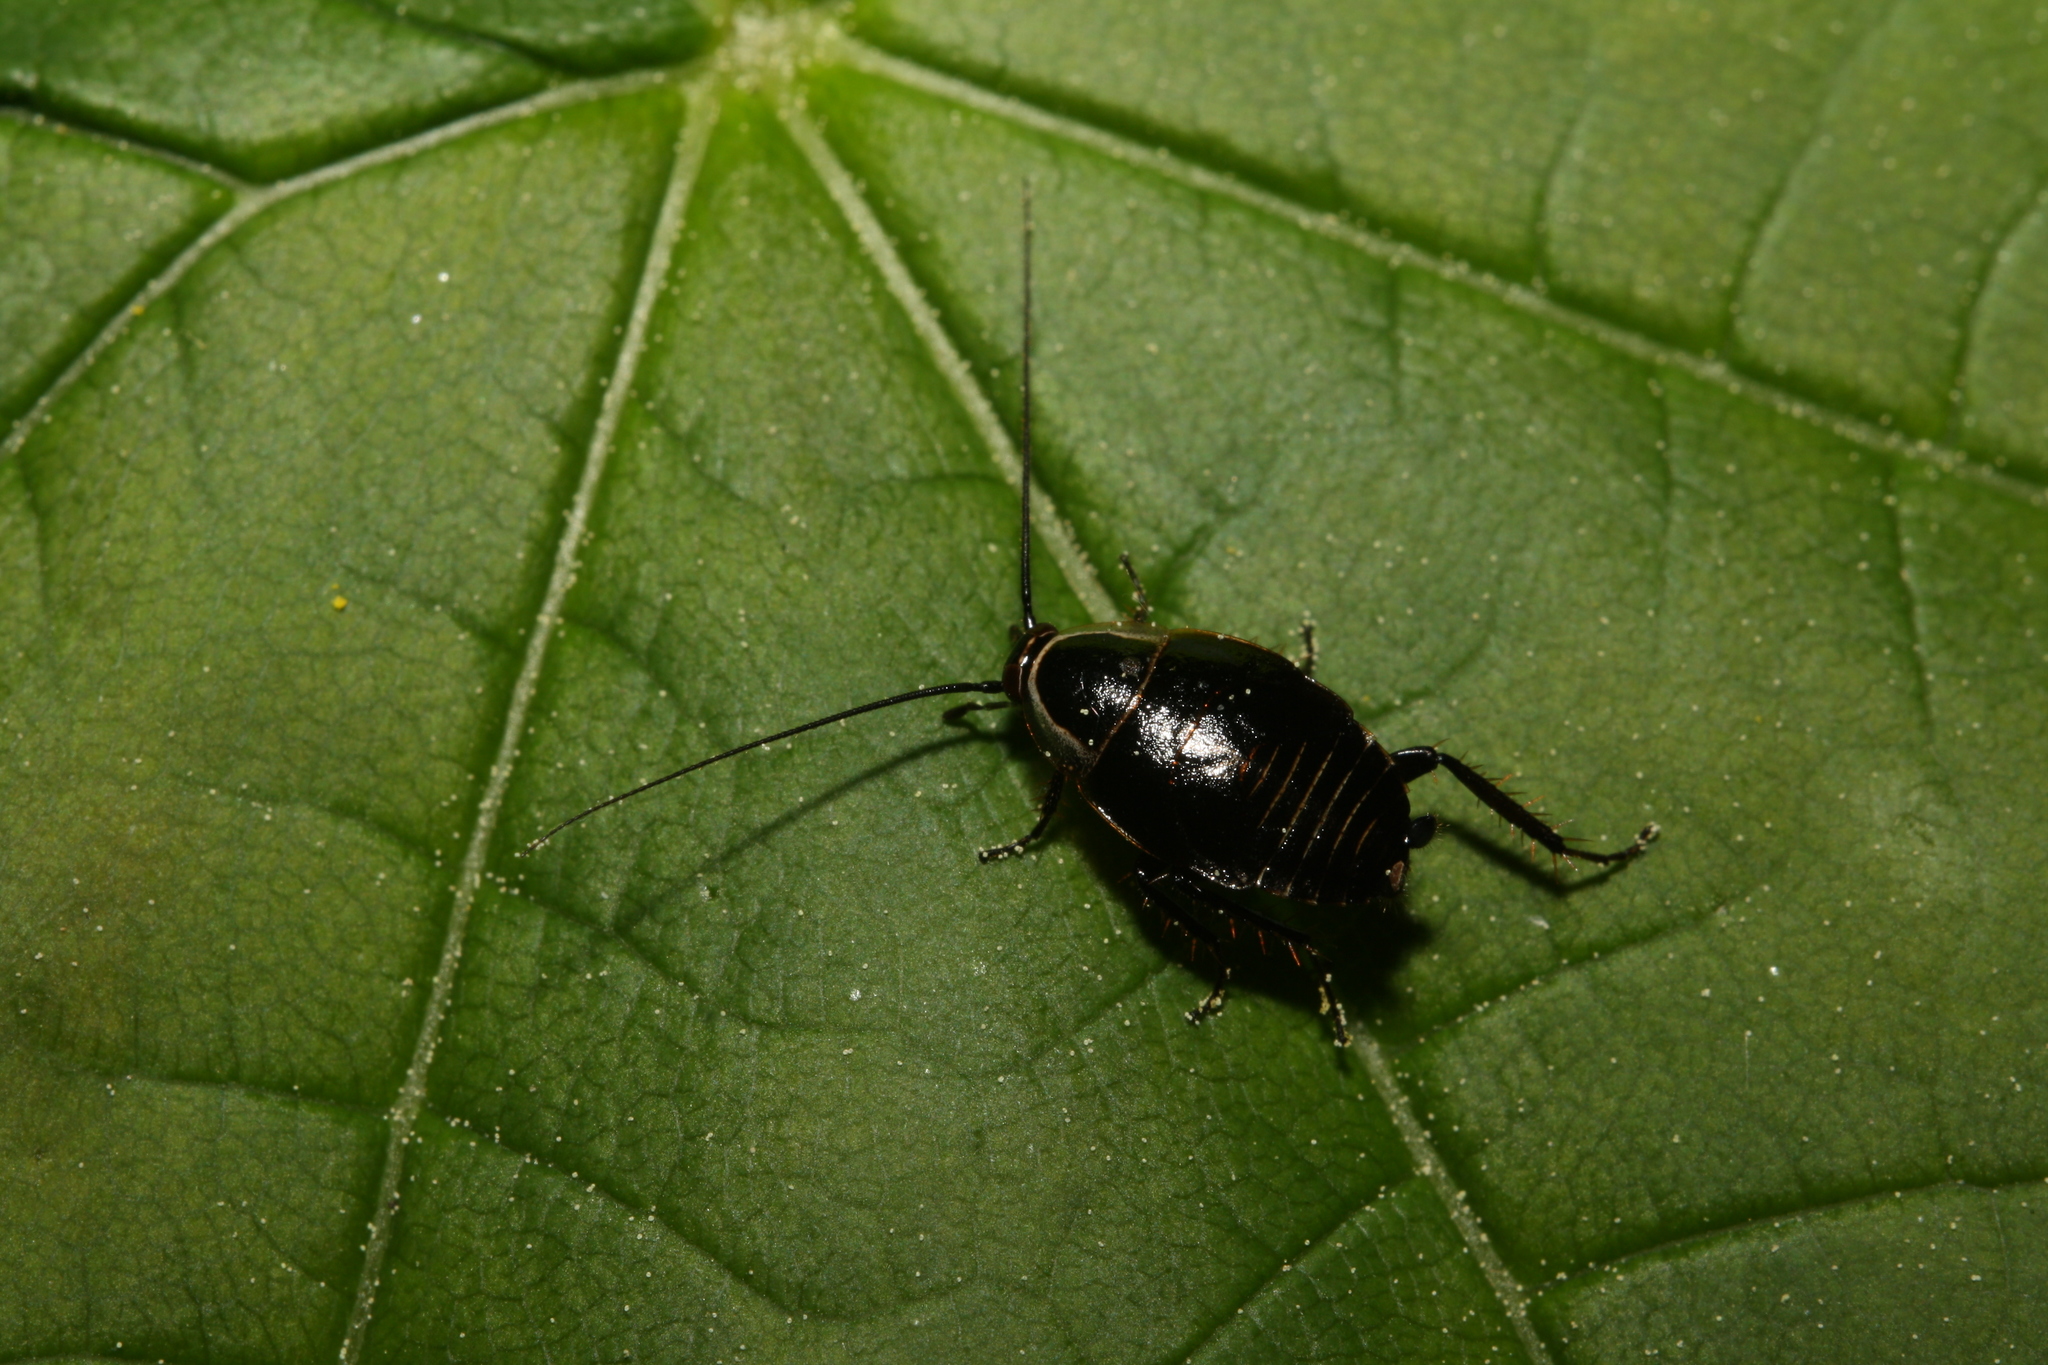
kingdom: Animalia
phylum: Arthropoda
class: Insecta
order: Blattodea
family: Ectobiidae
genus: Ectobius
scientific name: Ectobius sylvestris
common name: Forest cockroach
